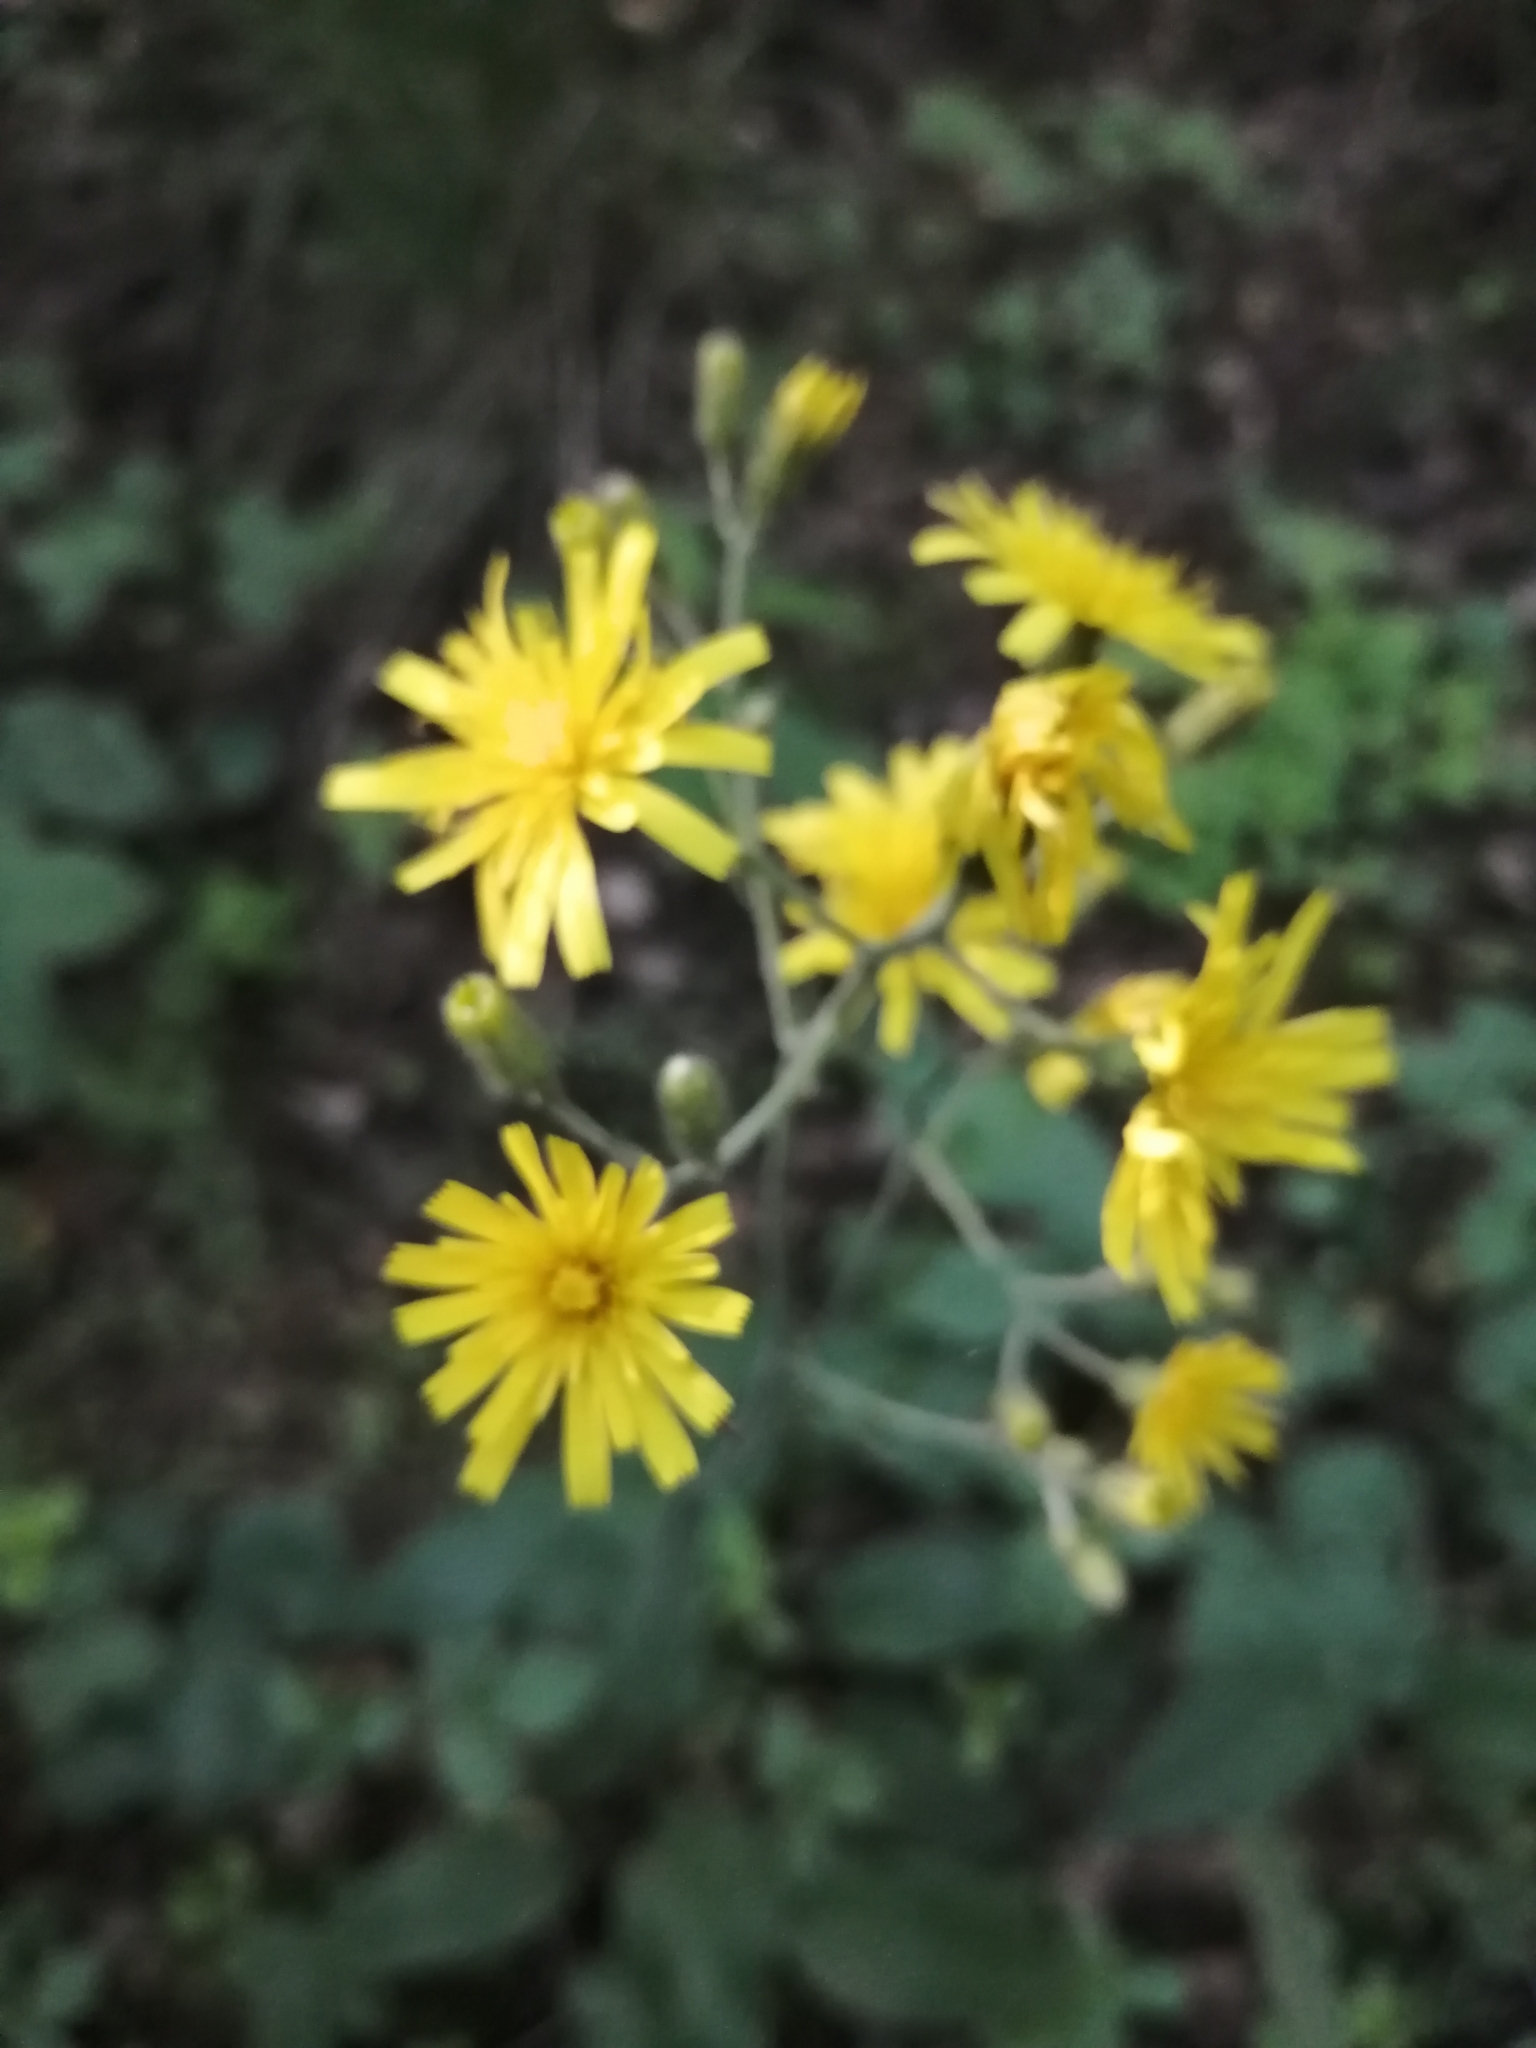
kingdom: Plantae
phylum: Tracheophyta
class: Magnoliopsida
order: Asterales
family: Asteraceae
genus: Hieracium
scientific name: Hieracium murorum
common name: Wall hawkweed
